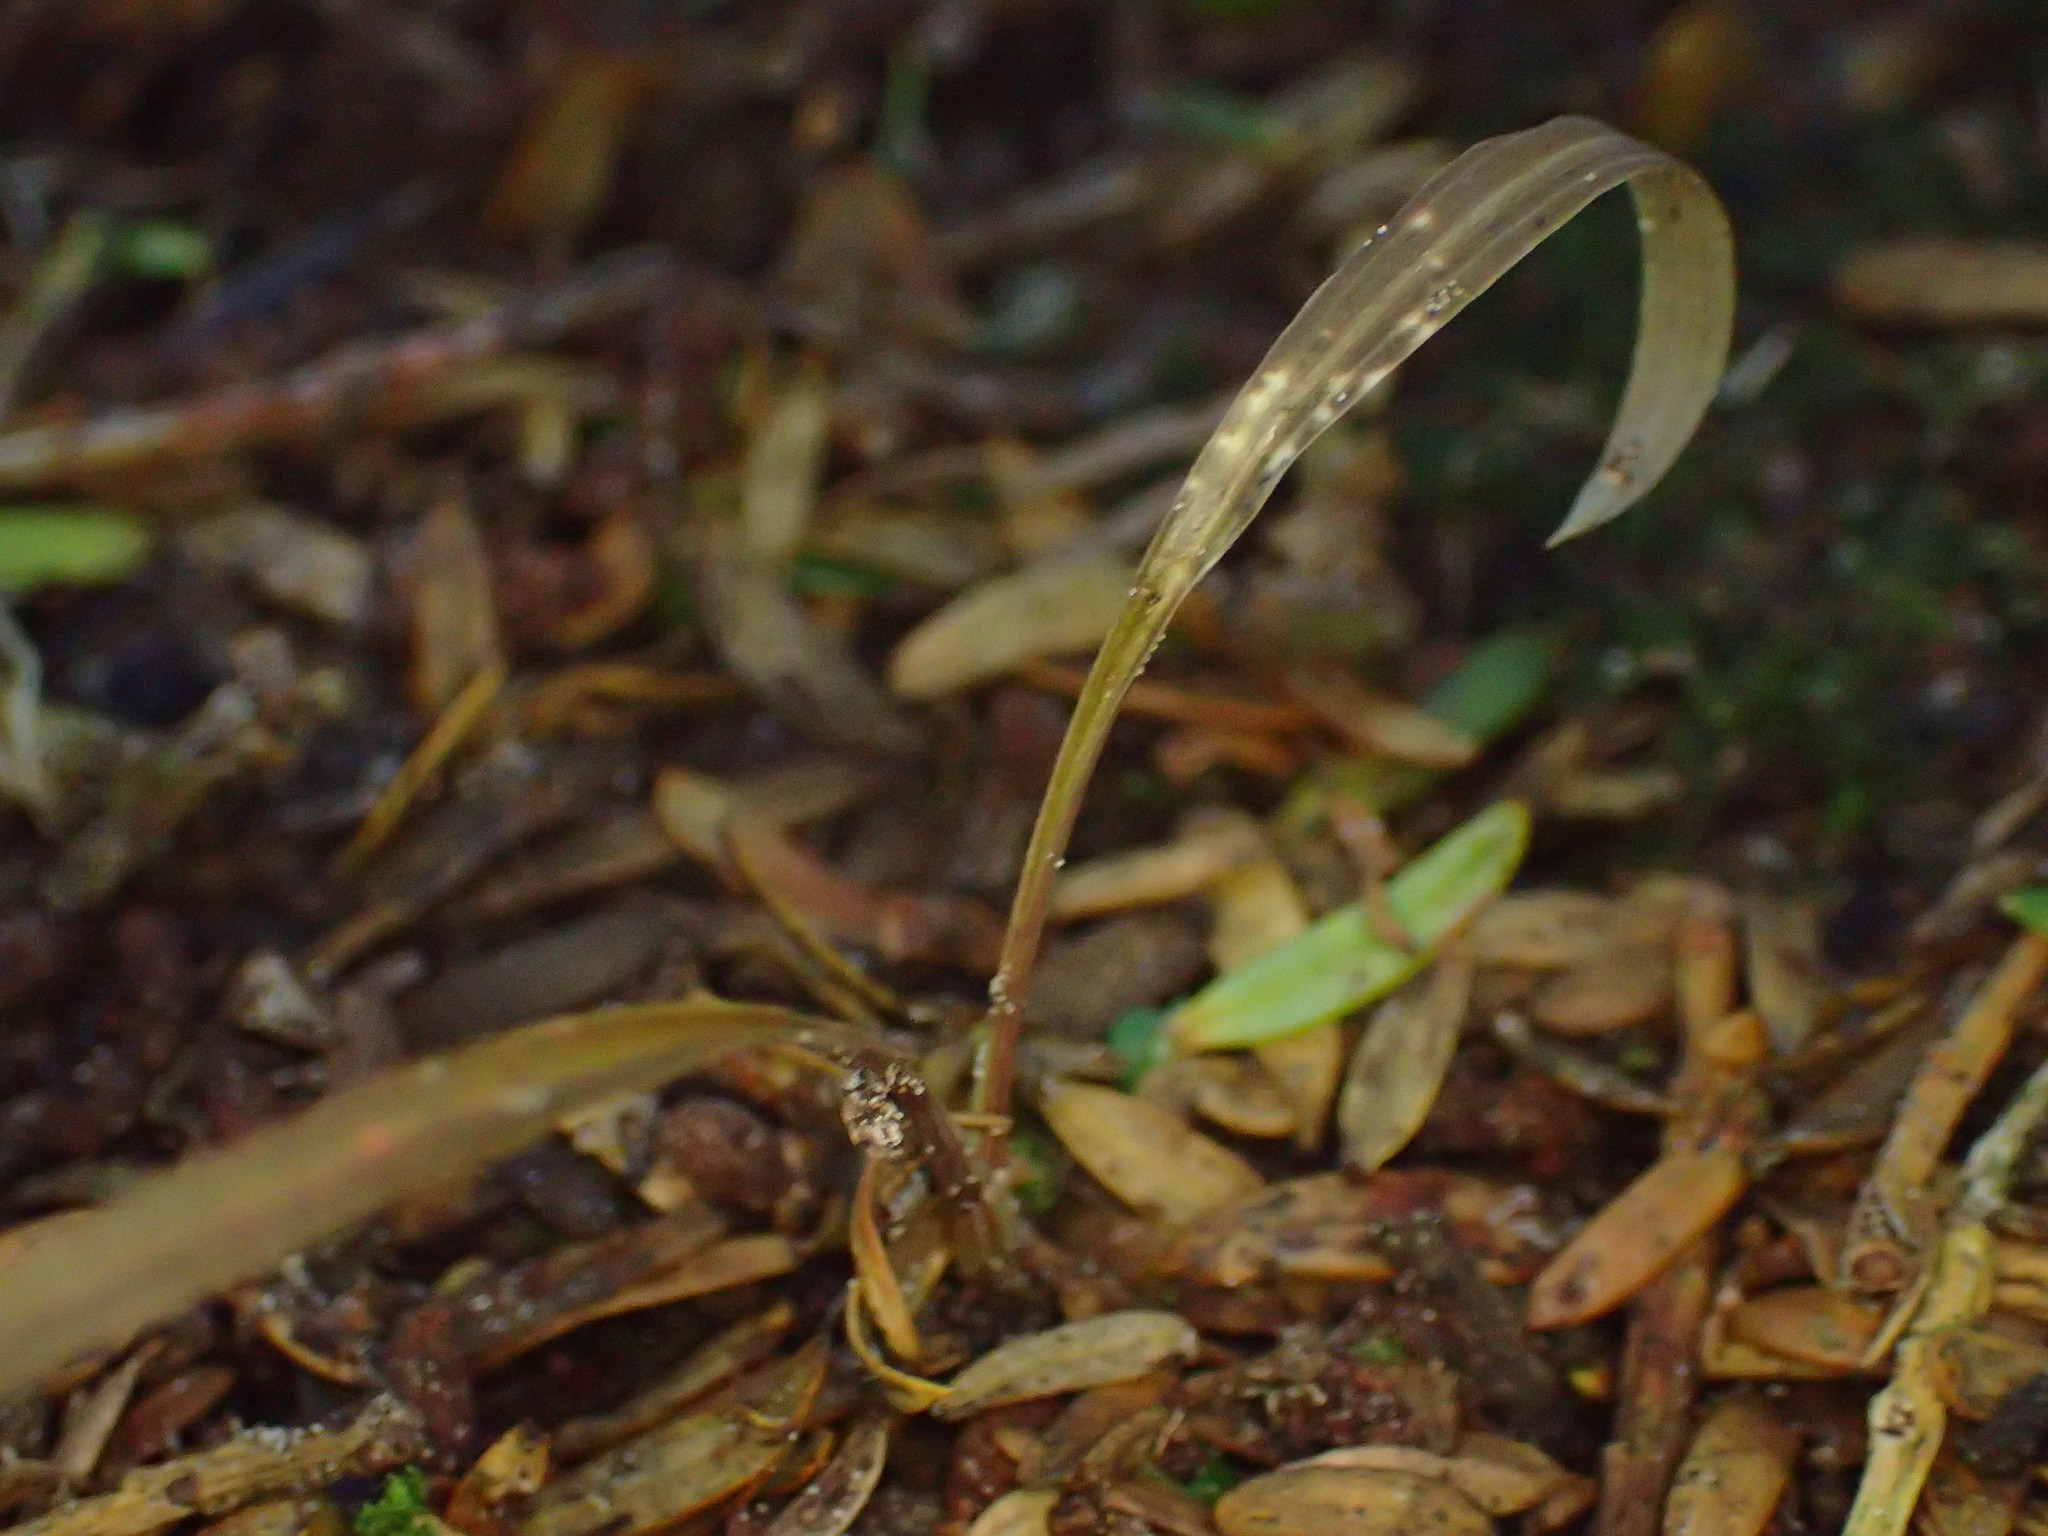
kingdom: Plantae
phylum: Tracheophyta
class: Liliopsida
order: Asparagales
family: Asparagaceae
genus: Cordyline
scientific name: Cordyline australis
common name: Cabbage-palm
